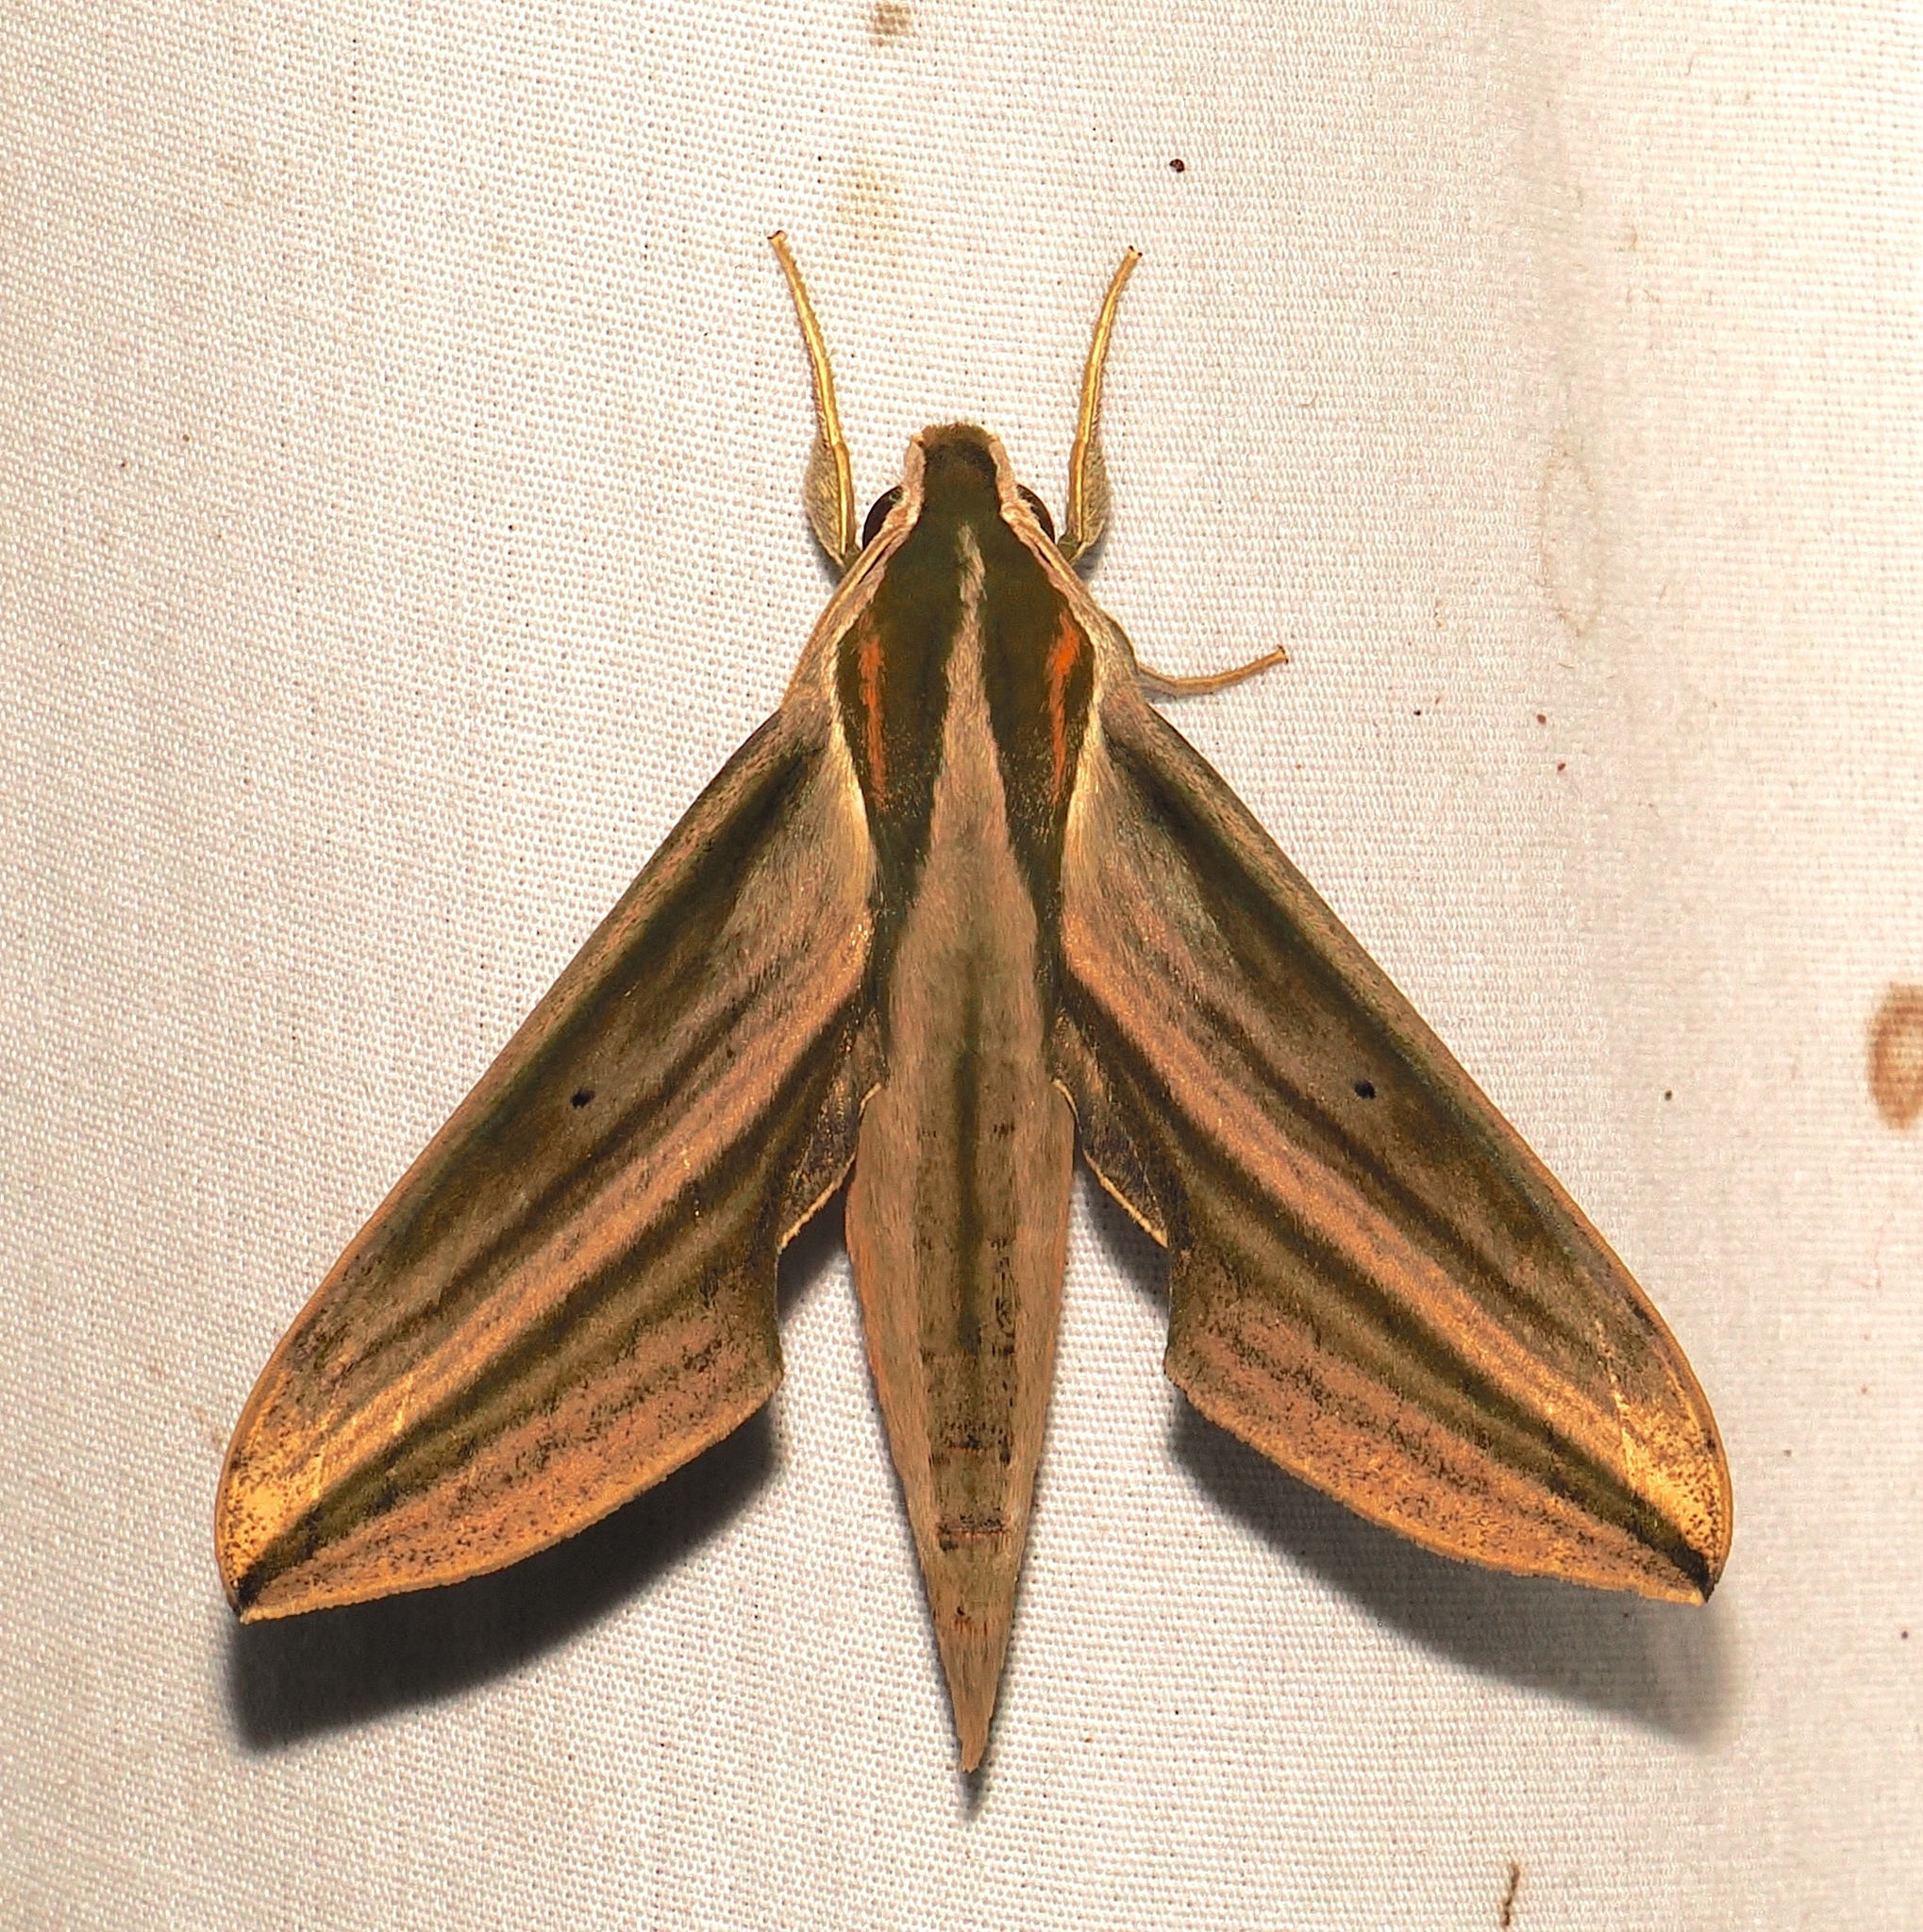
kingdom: Animalia
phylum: Arthropoda
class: Insecta
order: Lepidoptera
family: Sphingidae
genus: Xylophanes
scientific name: Xylophanes isaon
